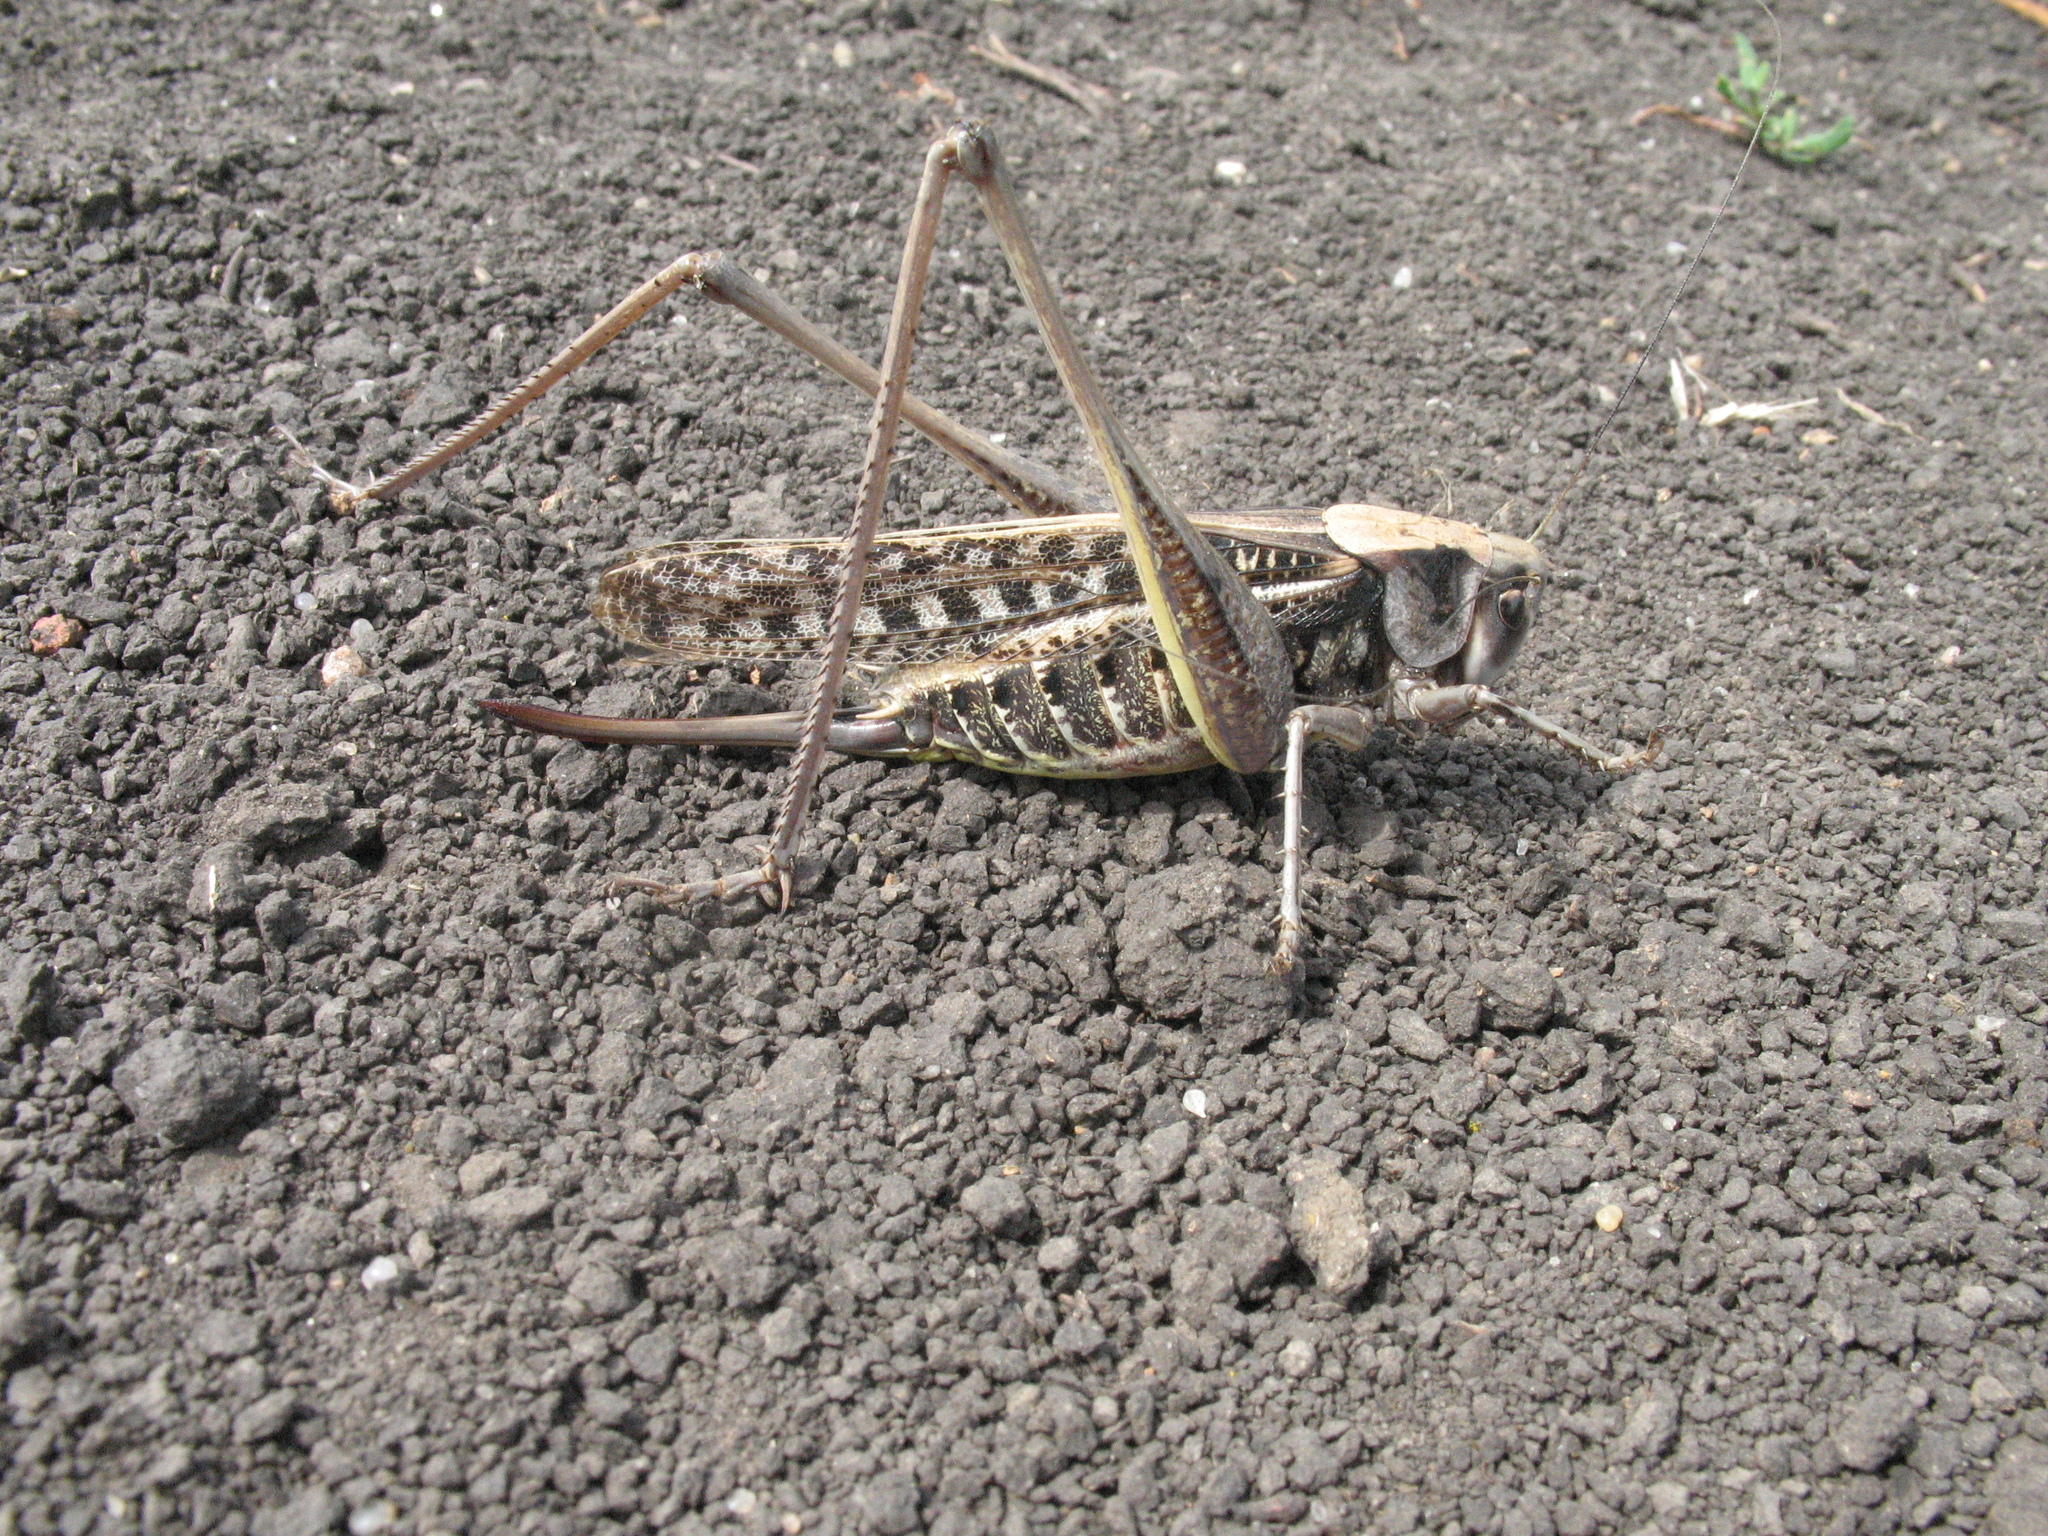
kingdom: Animalia
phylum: Arthropoda
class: Insecta
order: Orthoptera
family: Tettigoniidae
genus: Decticus
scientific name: Decticus verrucivorus
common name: Wart-biter
